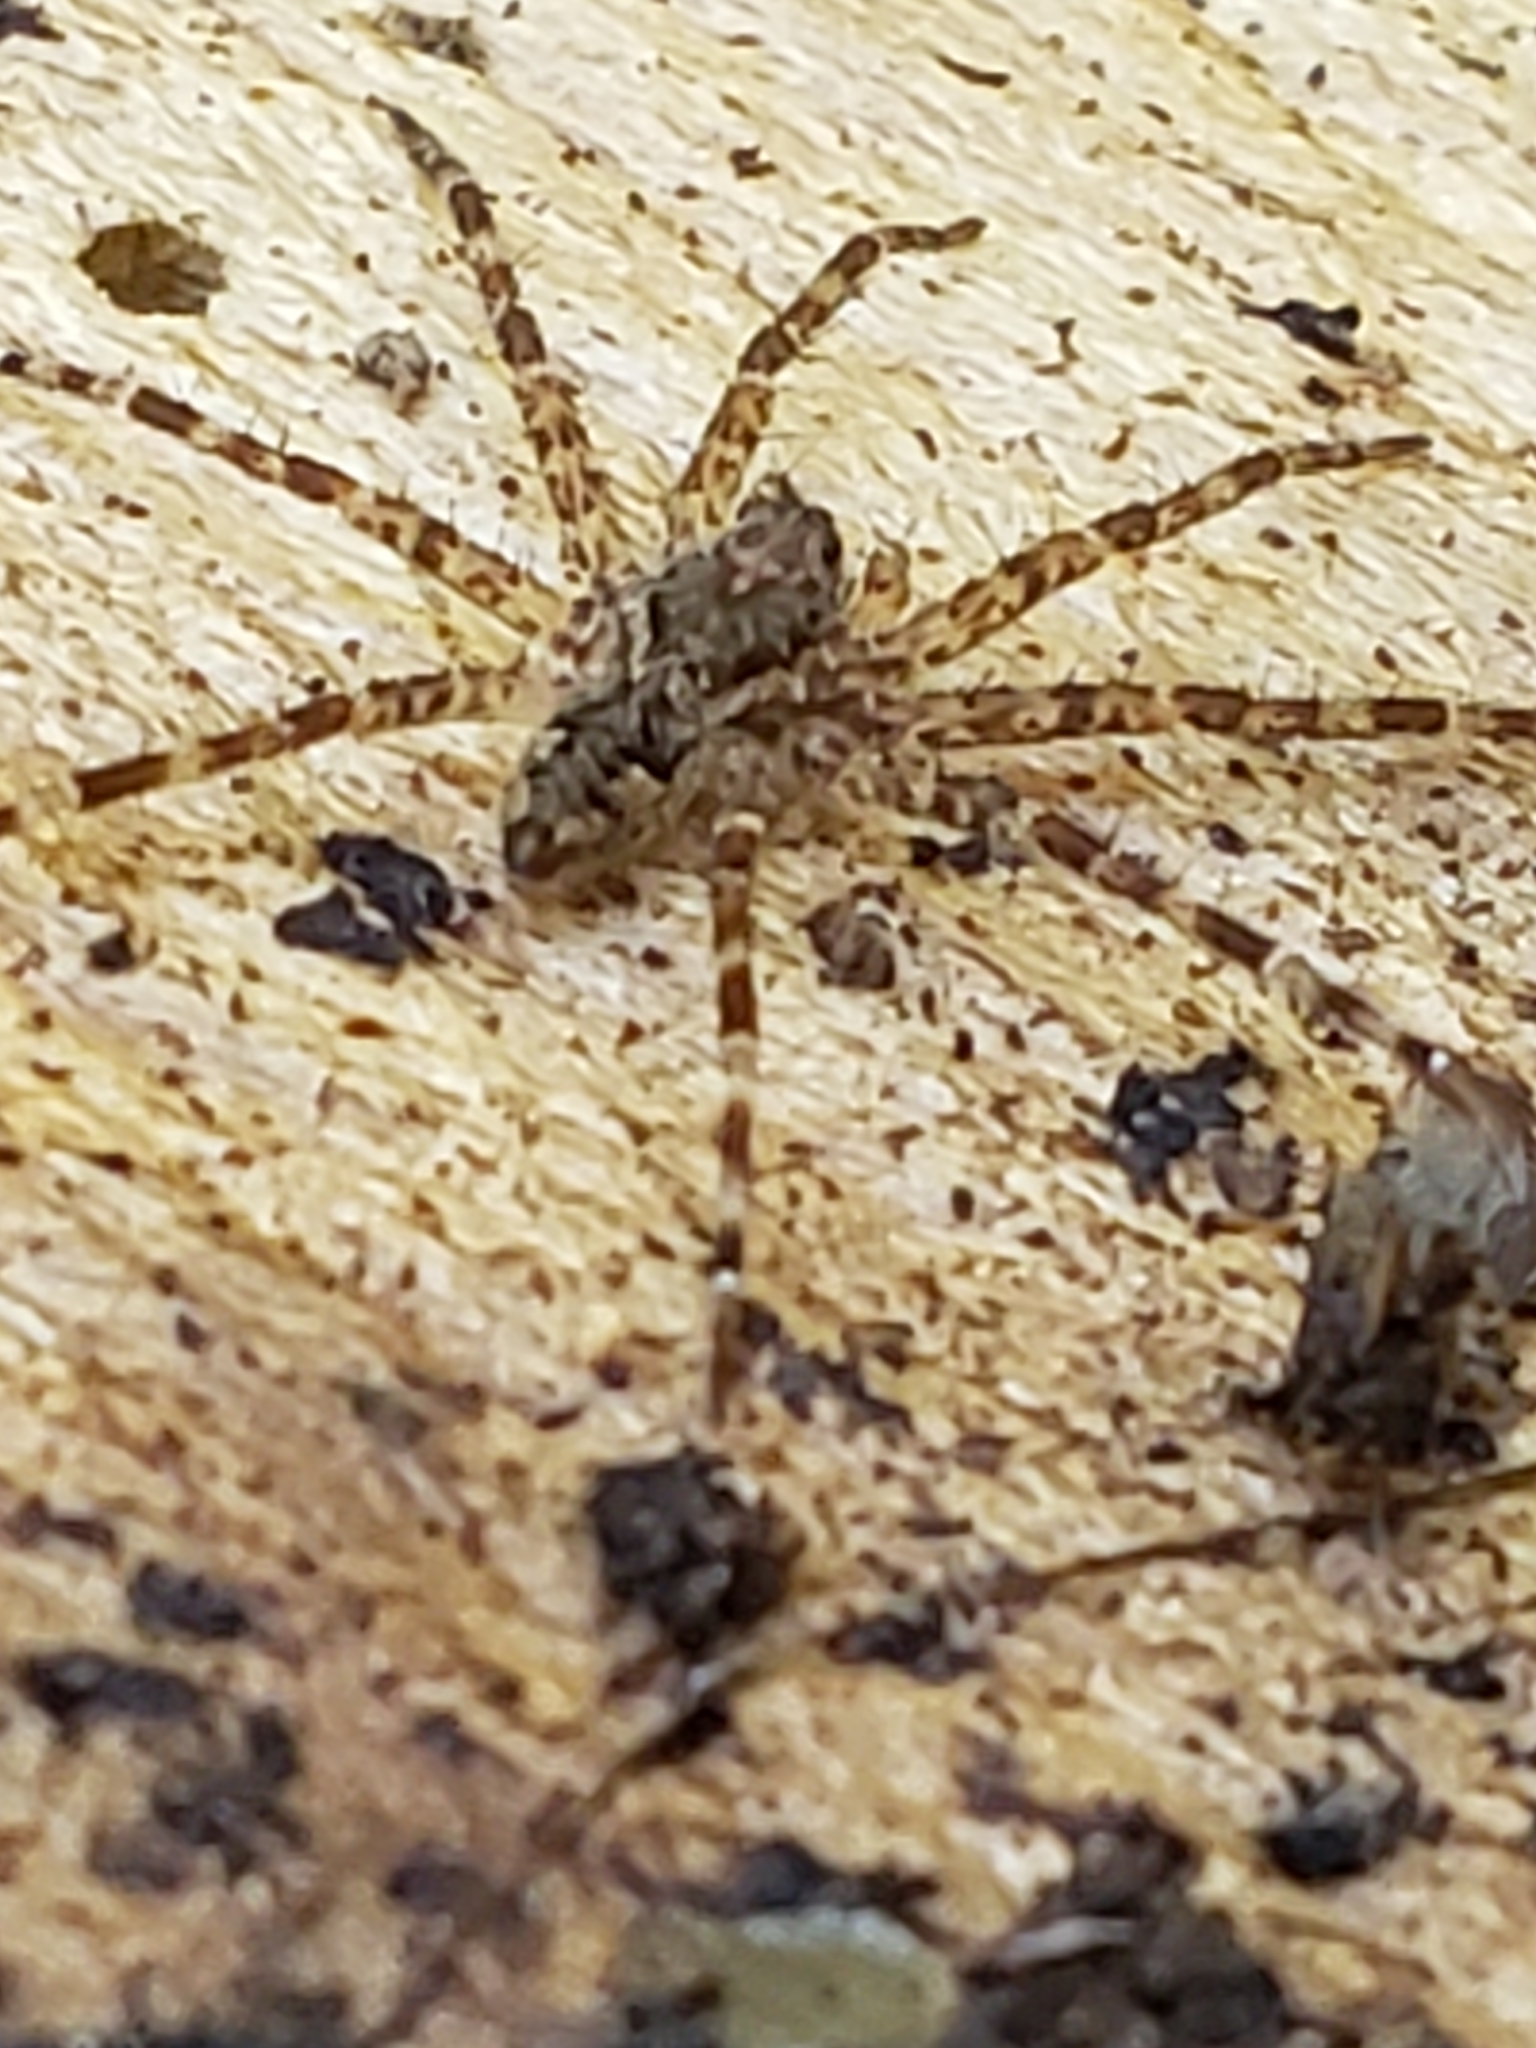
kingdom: Animalia
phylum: Arthropoda
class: Arachnida
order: Araneae
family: Pisauridae
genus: Dolomedes
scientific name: Dolomedes tenebrosus
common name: Dark fishing spider
